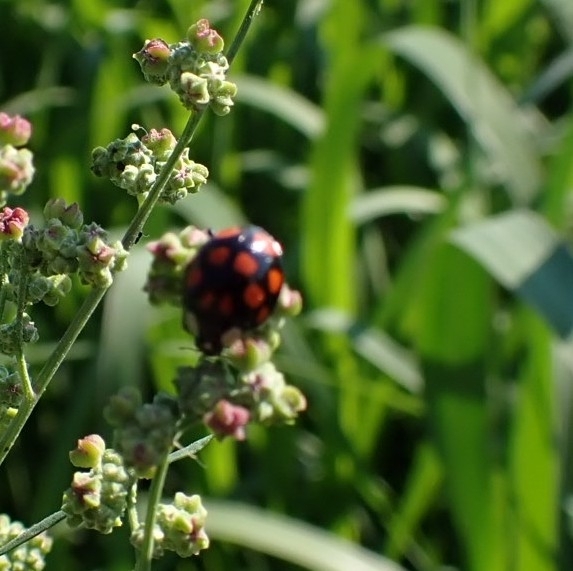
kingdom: Animalia
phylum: Arthropoda
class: Insecta
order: Coleoptera
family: Coccinellidae
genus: Harmonia
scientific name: Harmonia axyridis
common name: Harlequin ladybird
